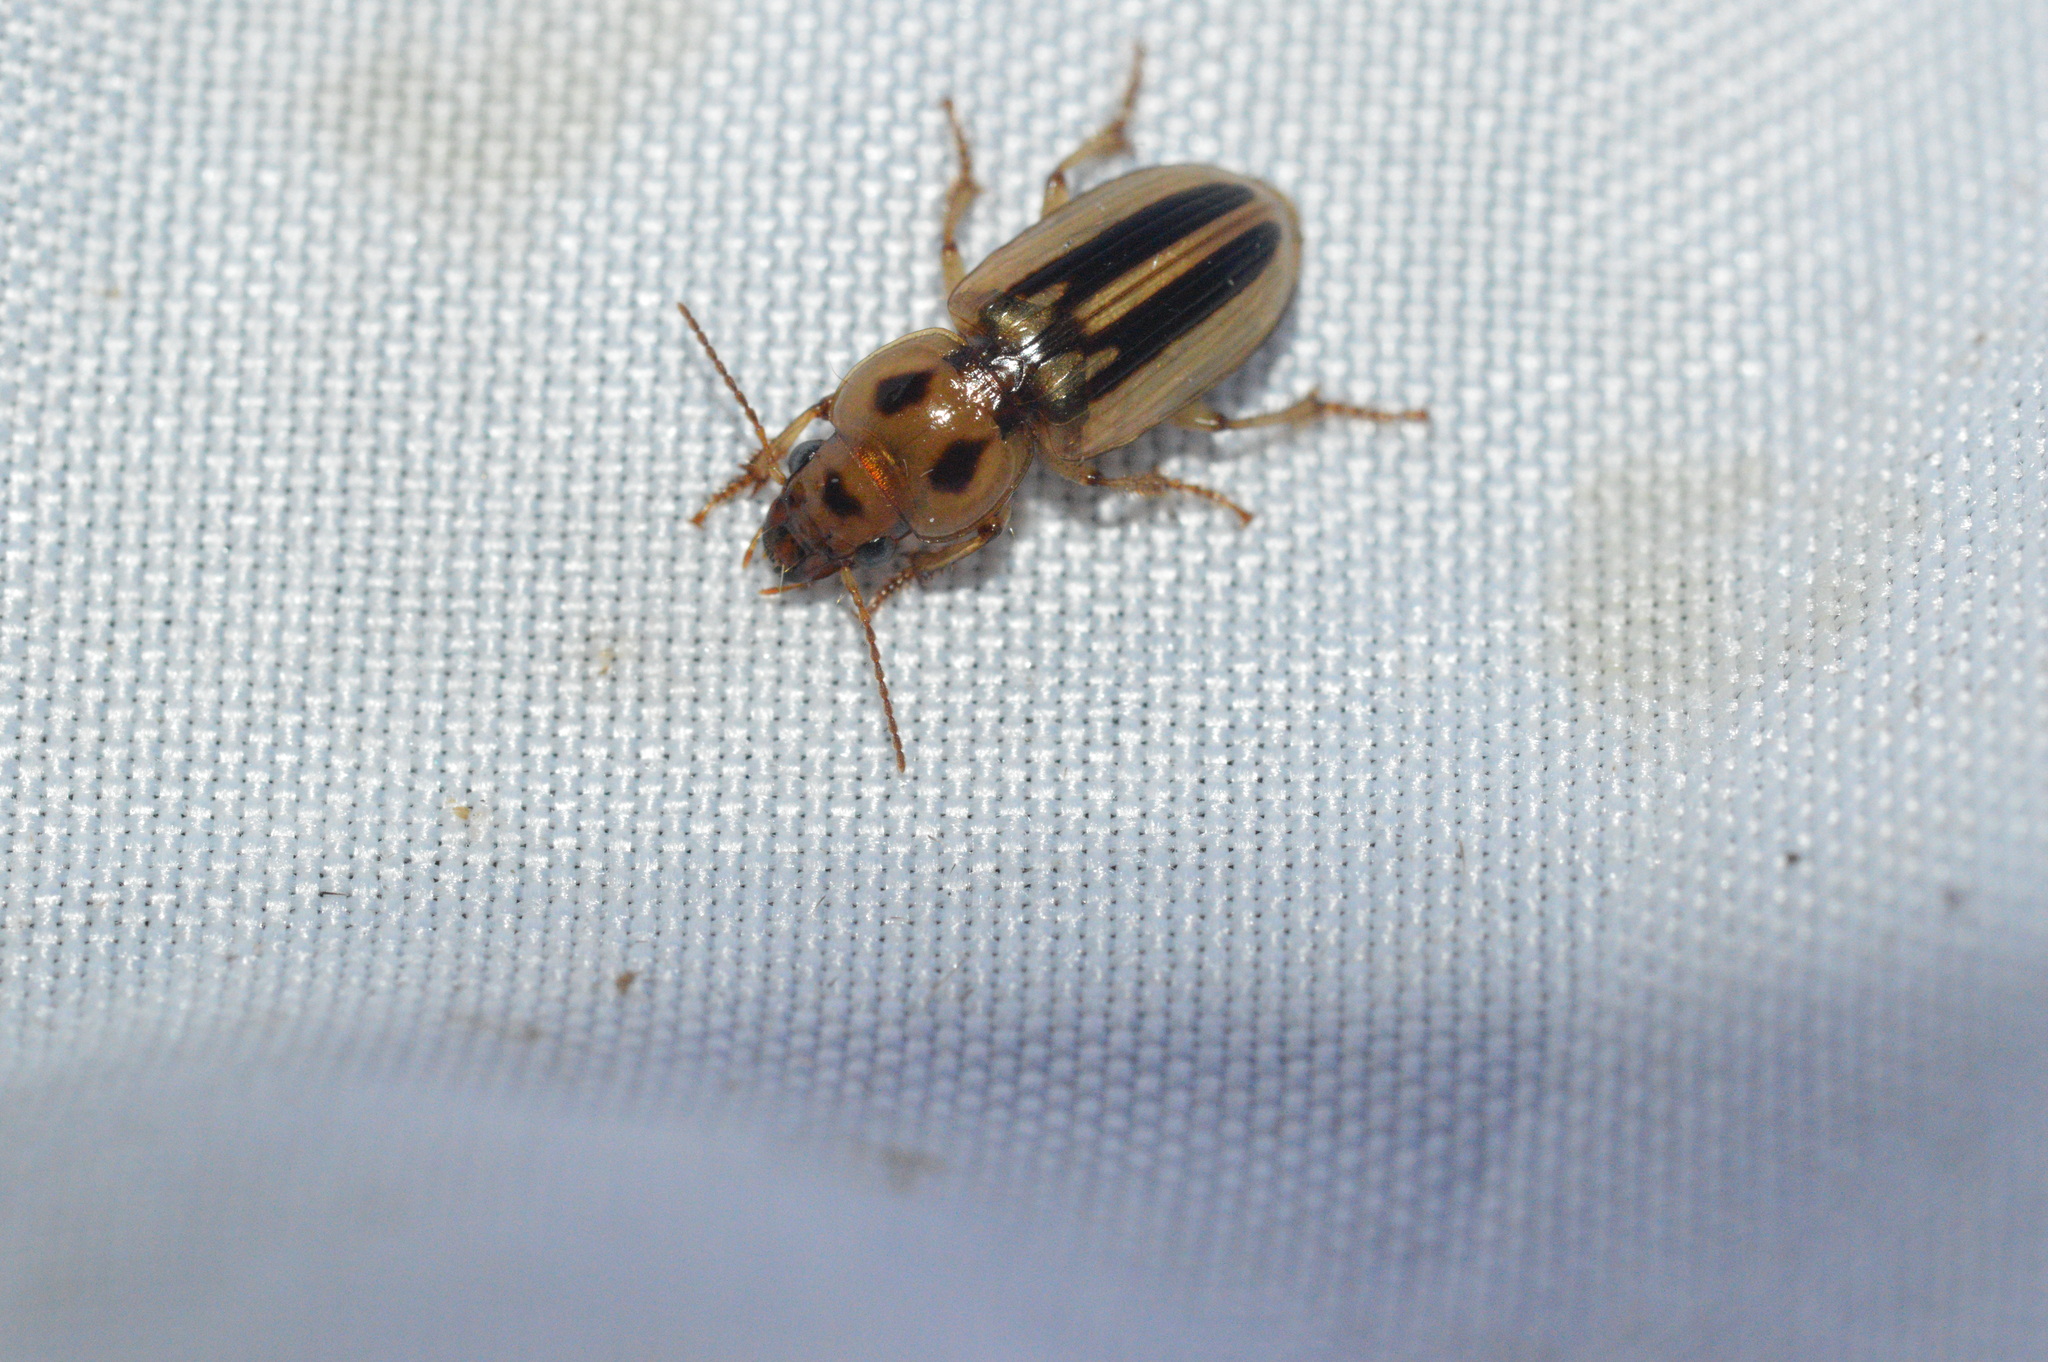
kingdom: Animalia
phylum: Arthropoda
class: Insecta
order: Coleoptera
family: Carabidae
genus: Stenolophus
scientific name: Stenolophus lineola
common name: Lined stenolophus
